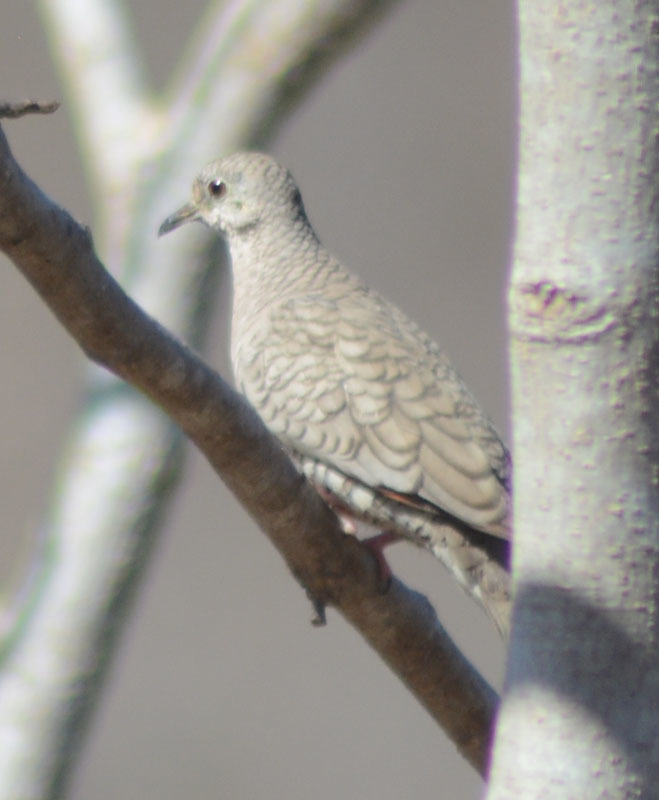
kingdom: Animalia
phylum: Chordata
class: Aves
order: Columbiformes
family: Columbidae
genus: Columbina
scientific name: Columbina inca
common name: Inca dove
